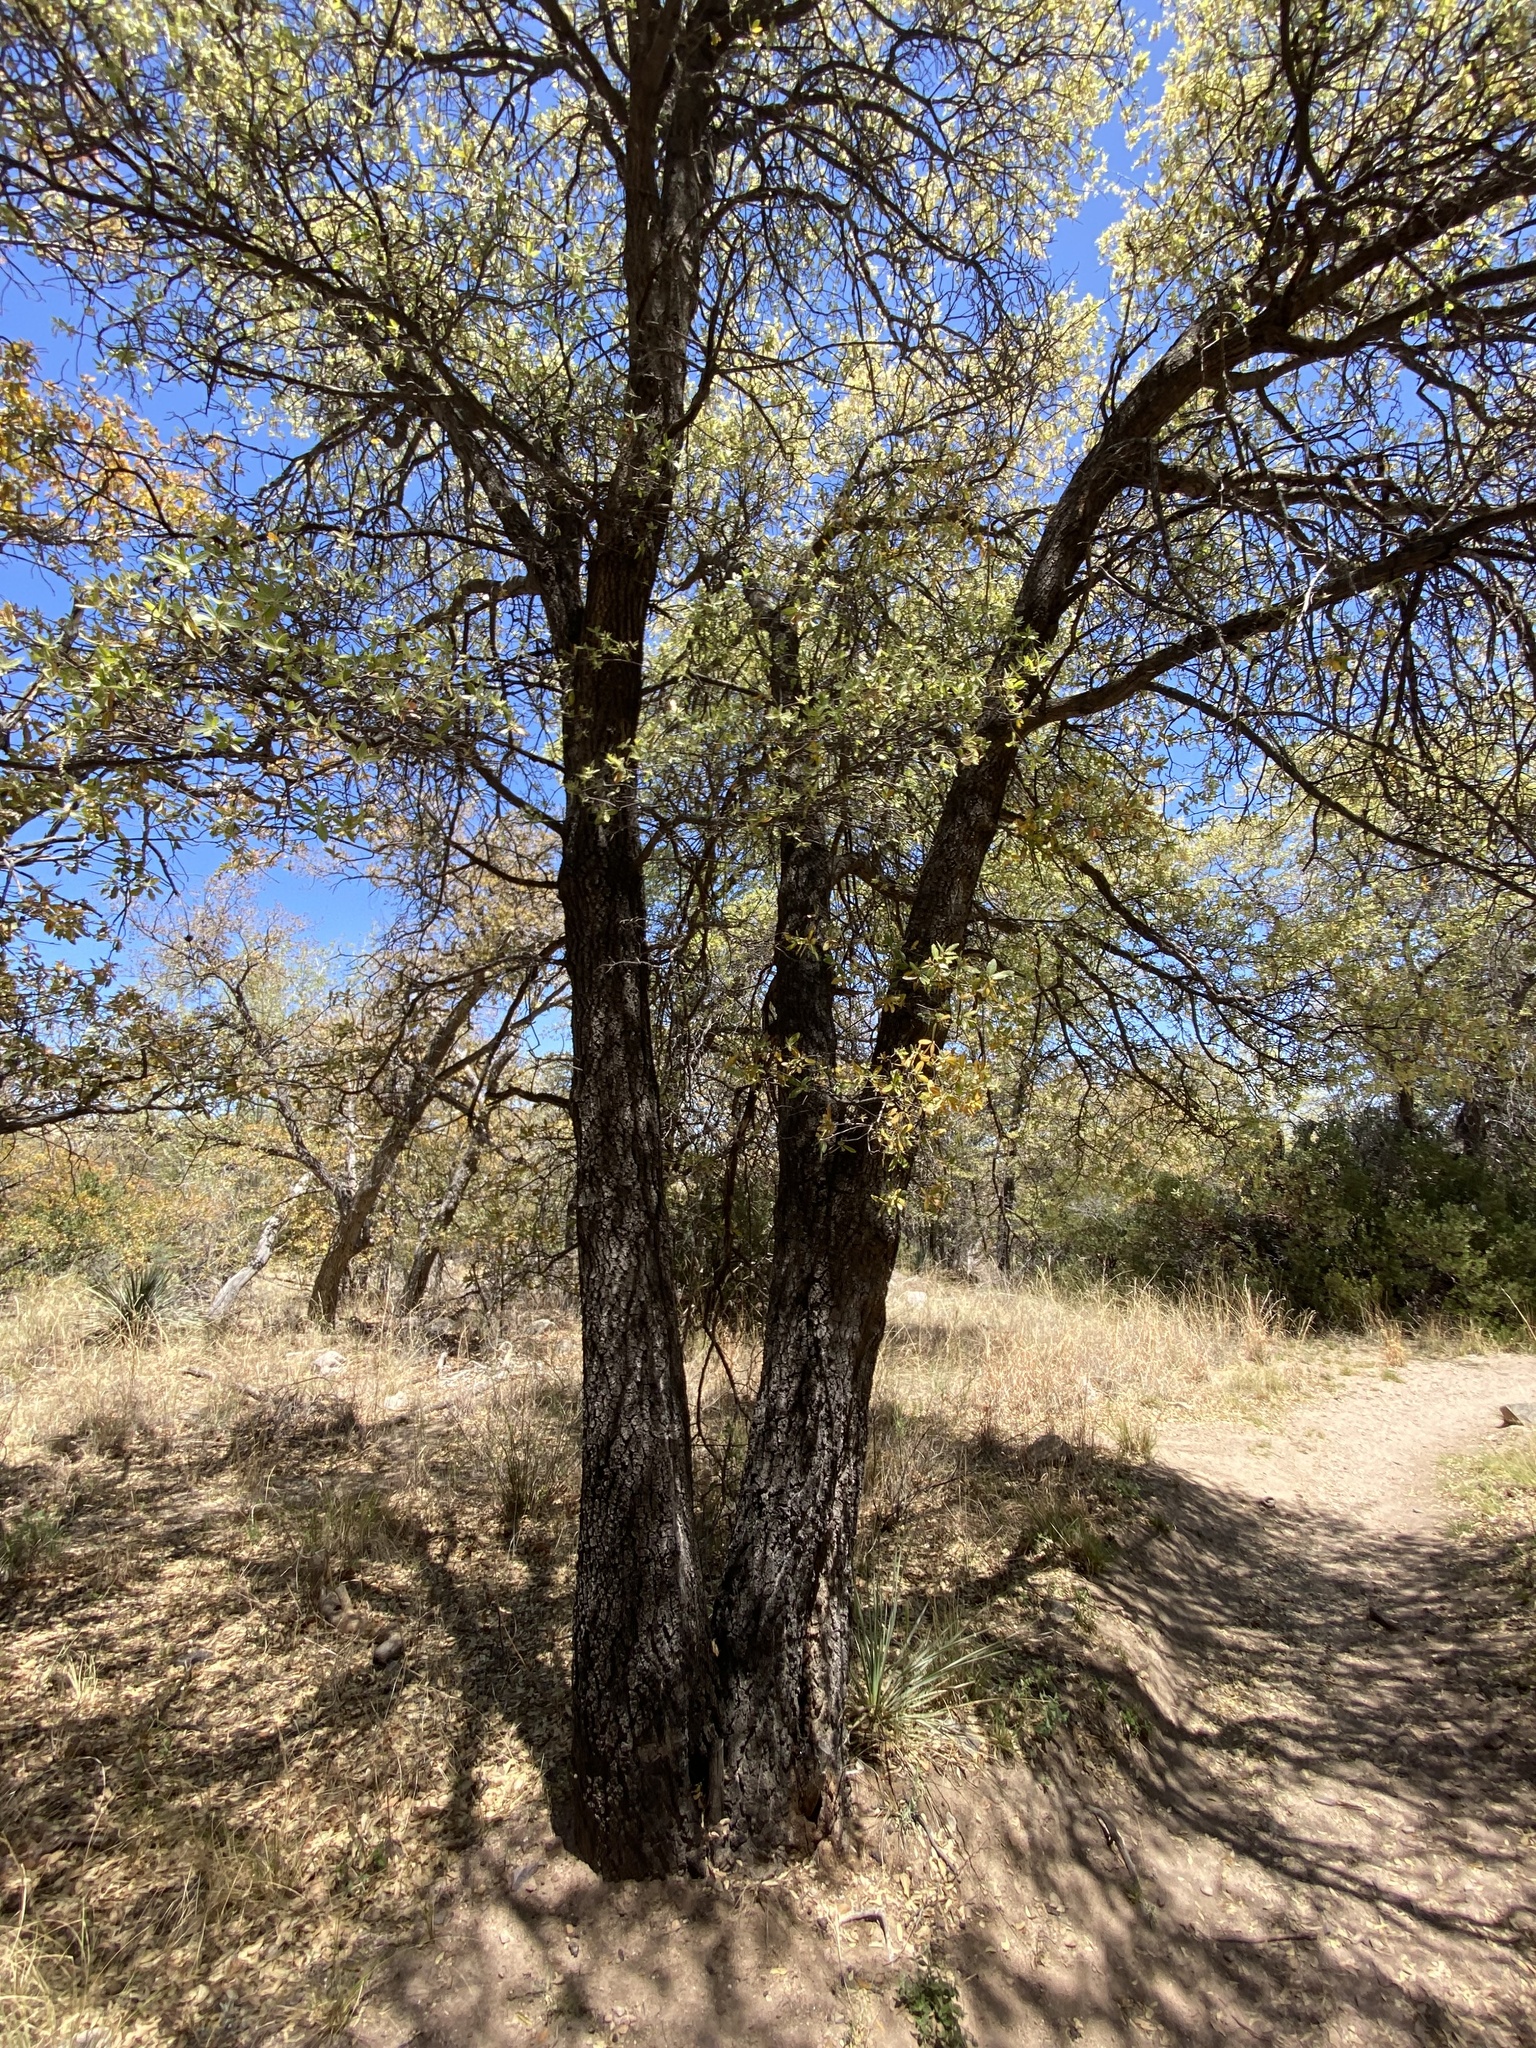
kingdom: Plantae
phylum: Tracheophyta
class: Magnoliopsida
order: Fagales
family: Fagaceae
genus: Quercus
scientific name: Quercus emoryi
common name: Emory oak
